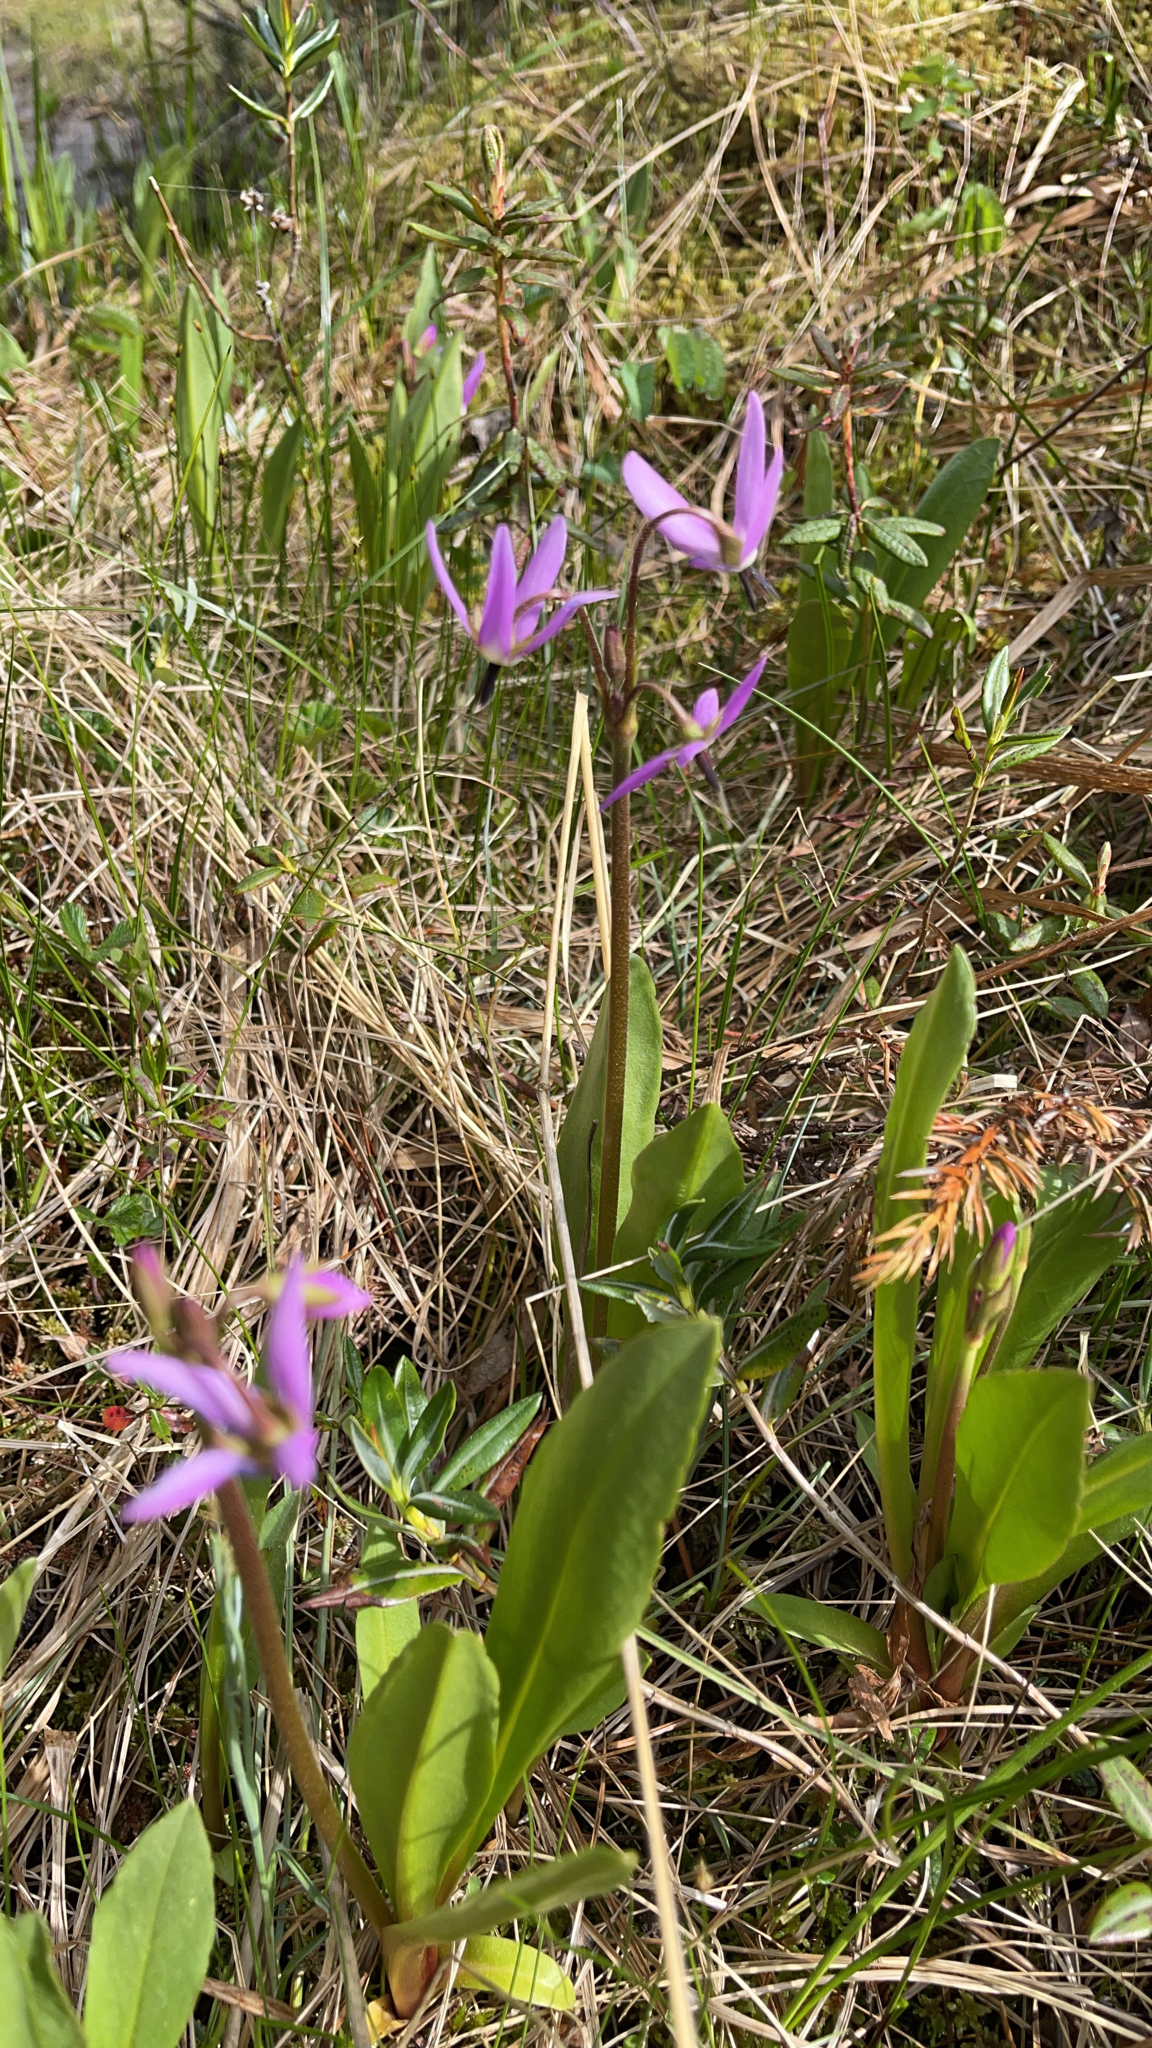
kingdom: Plantae
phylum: Tracheophyta
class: Magnoliopsida
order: Ericales
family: Primulaceae
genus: Dodecatheon
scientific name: Dodecatheon jeffreyanum
